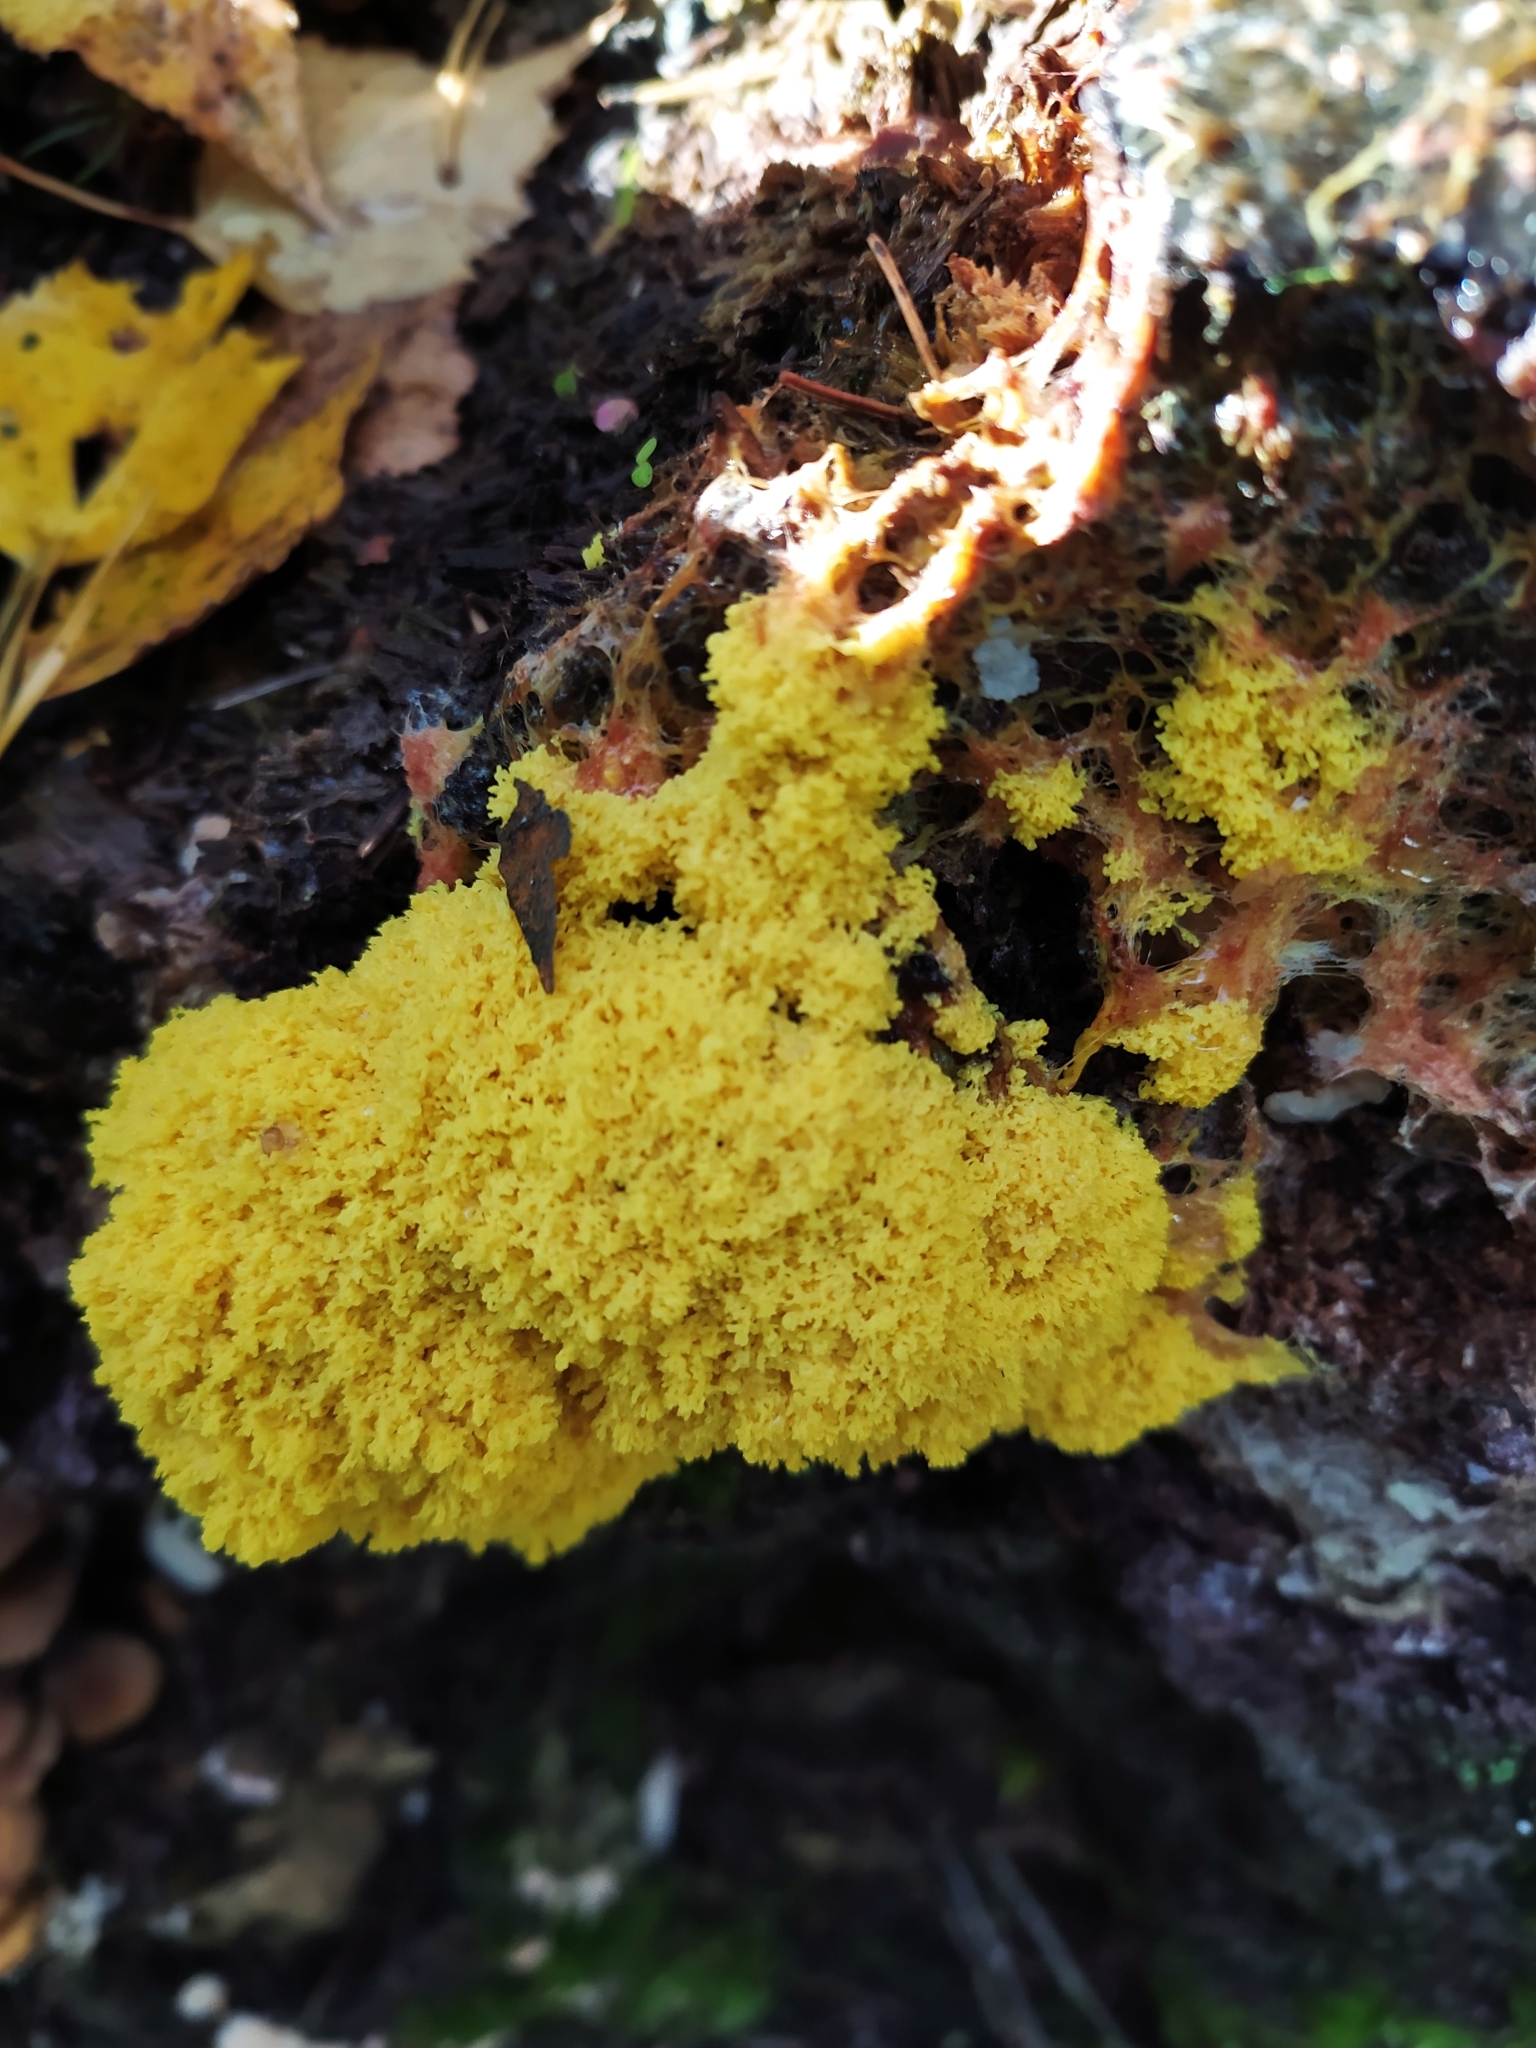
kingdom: Protozoa
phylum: Mycetozoa
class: Myxomycetes
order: Physarales
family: Physaraceae
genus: Fuligo
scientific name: Fuligo septica
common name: Dog vomit slime mold
